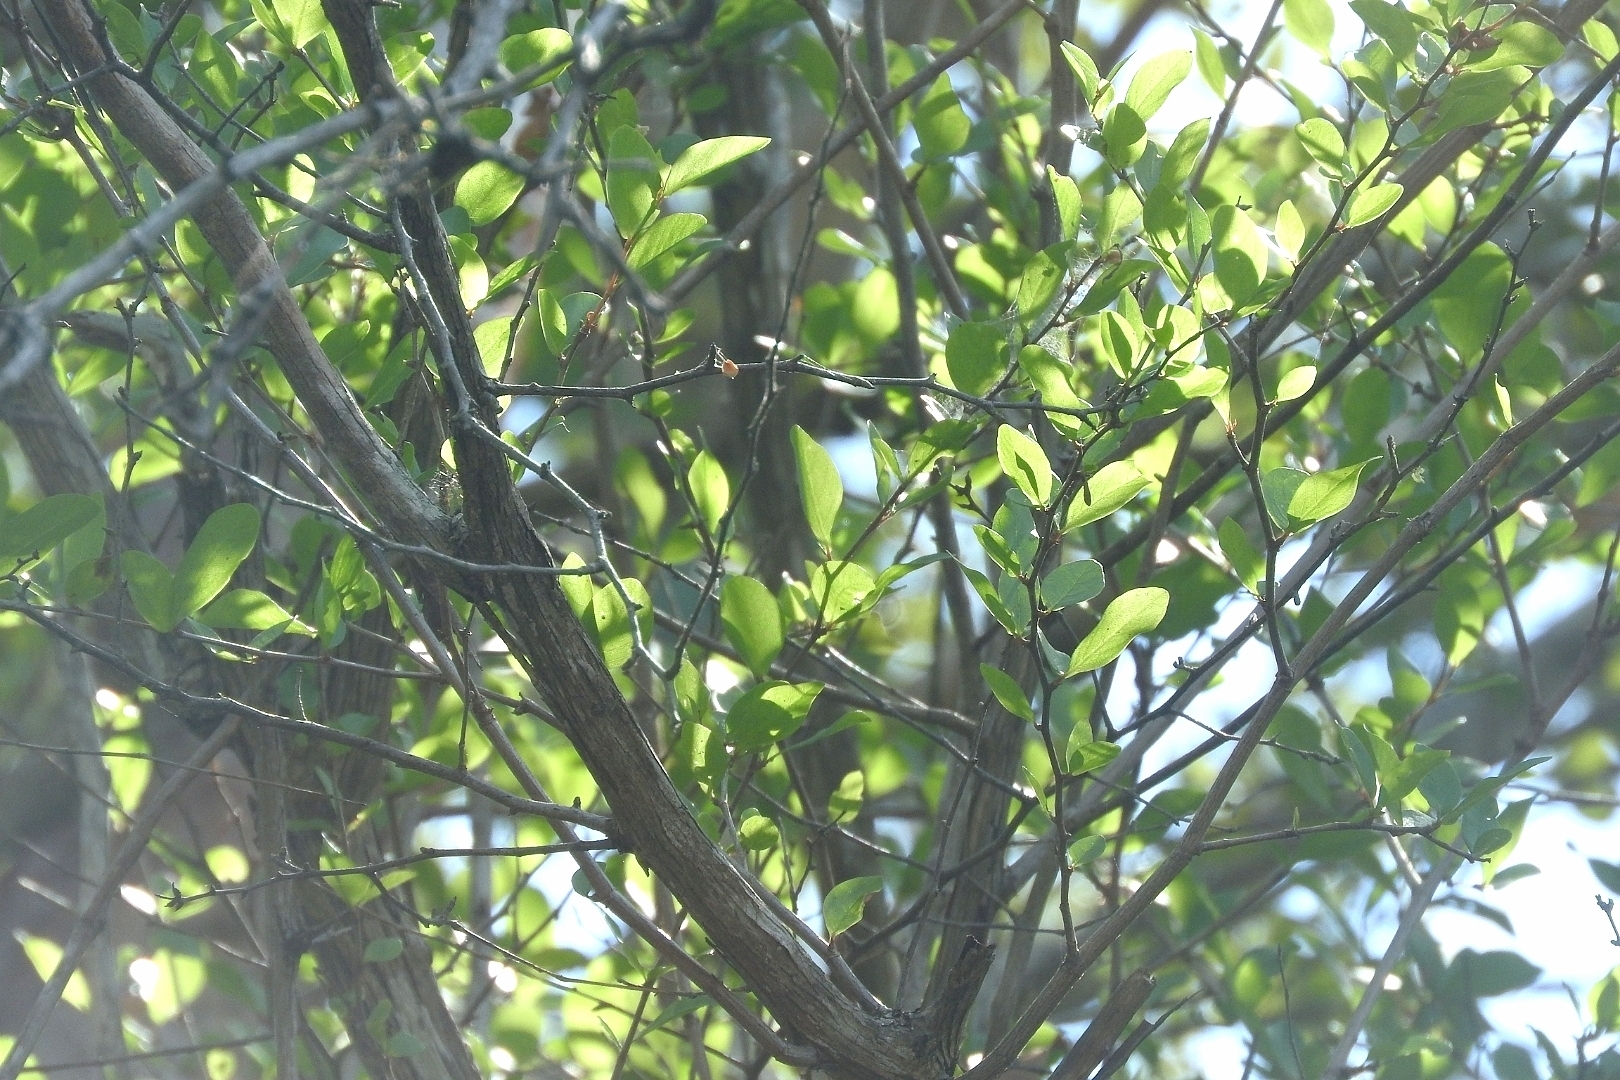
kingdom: Plantae
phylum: Tracheophyta
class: Magnoliopsida
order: Caryophyllales
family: Polygonaceae
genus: Gymnopodium
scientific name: Gymnopodium floribundum
